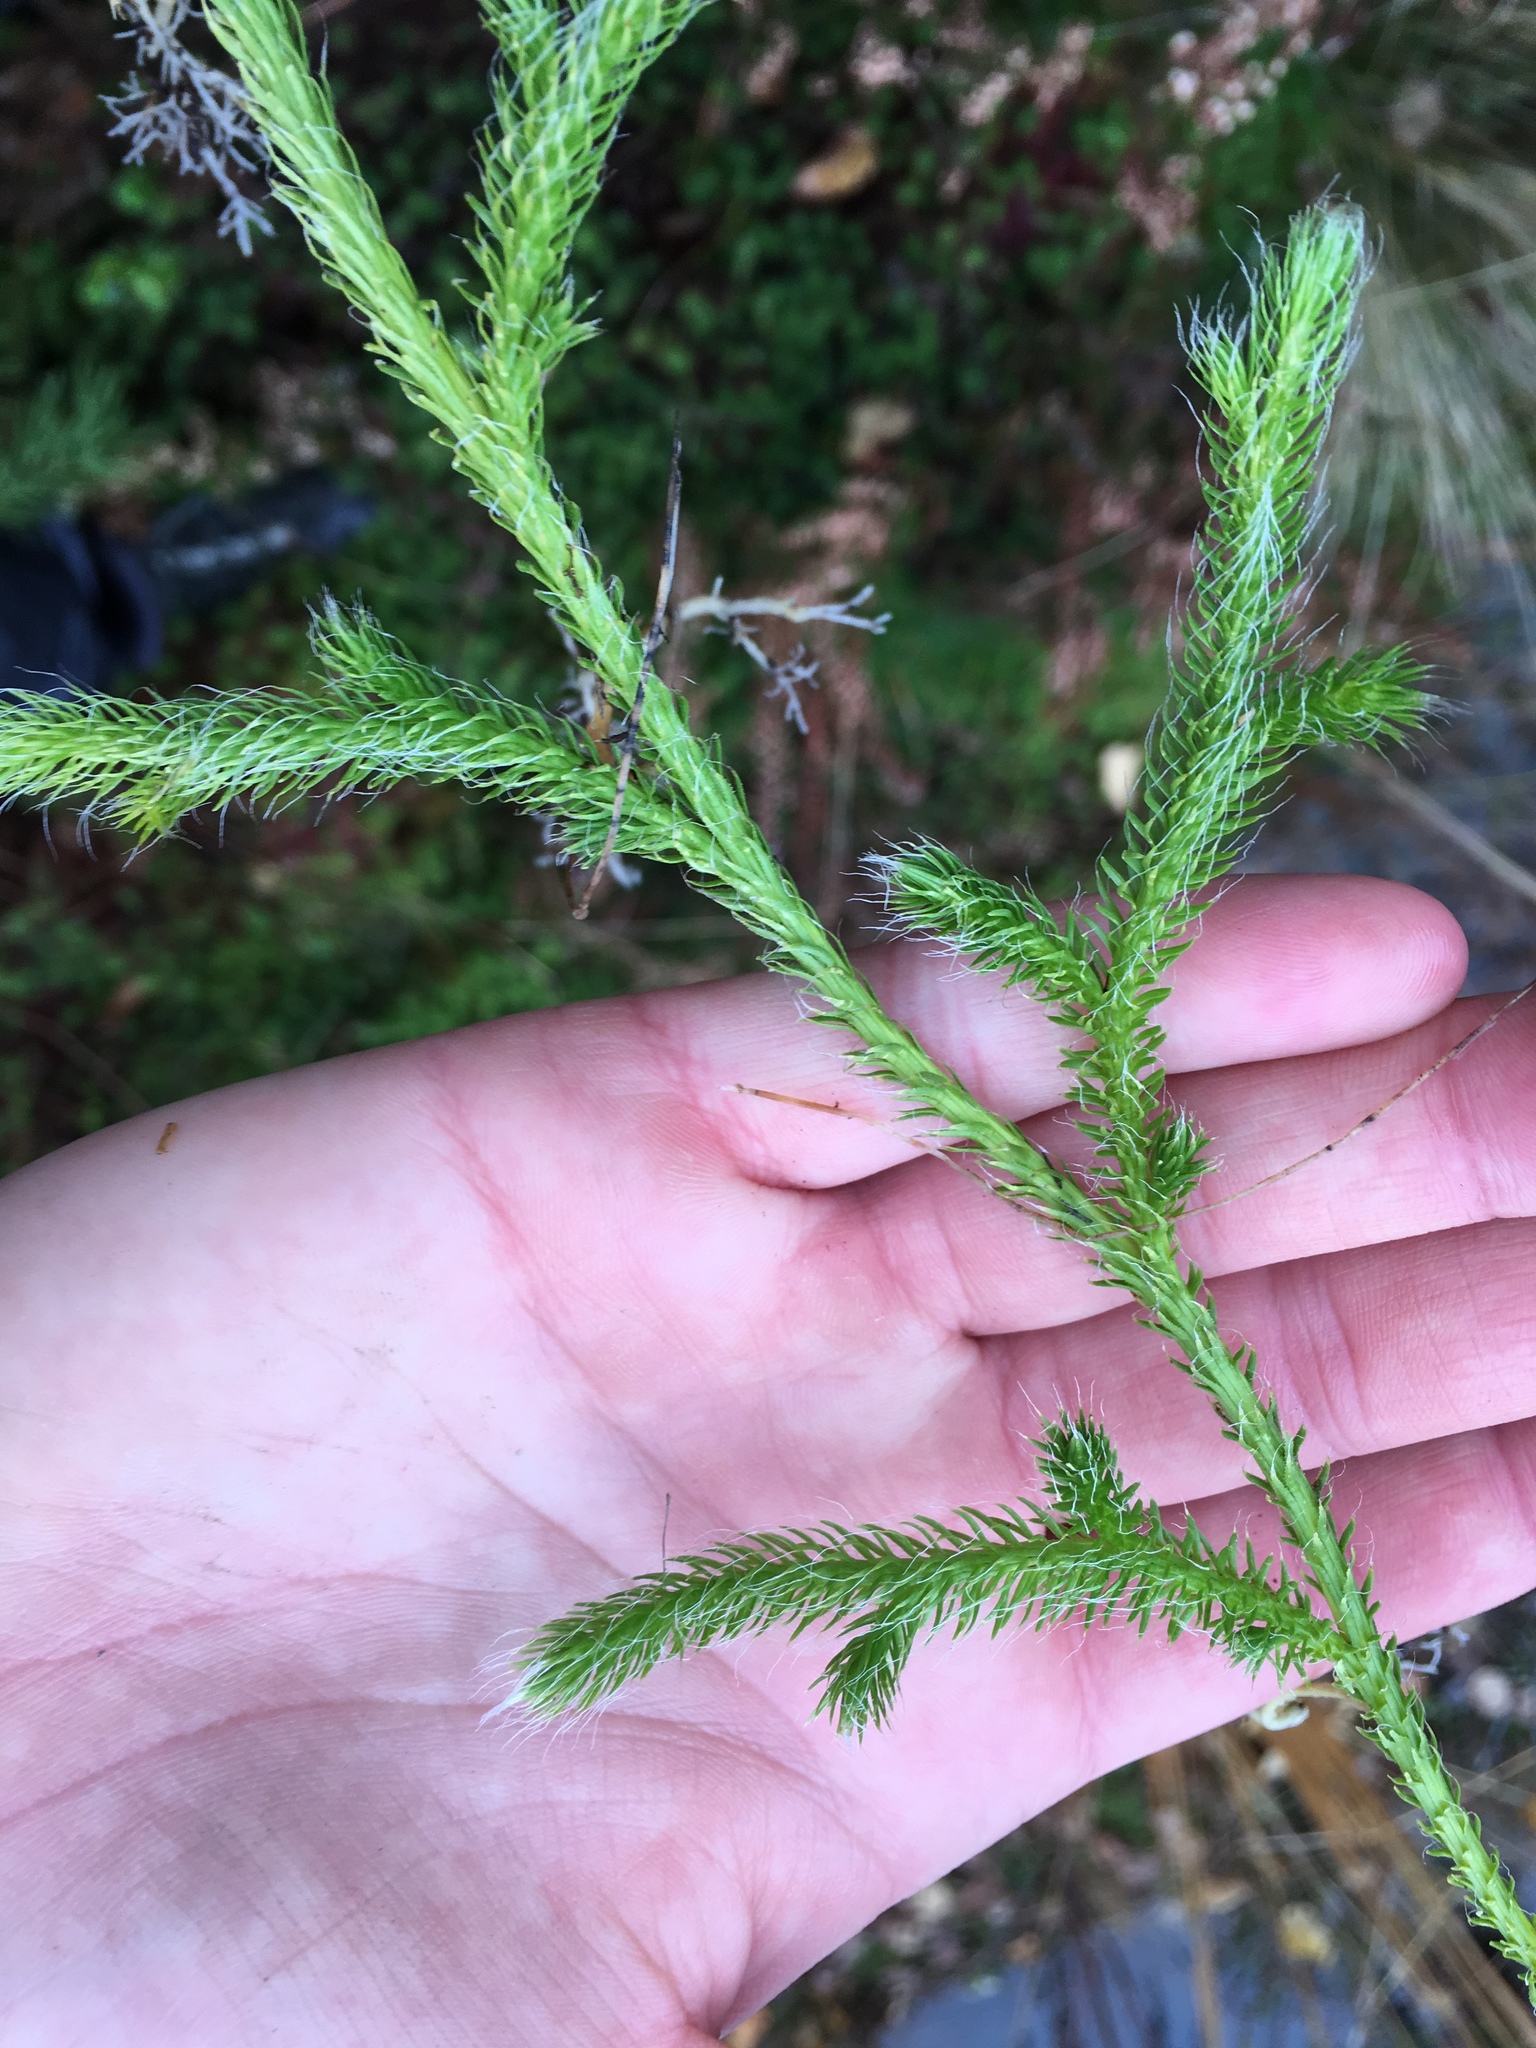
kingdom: Plantae
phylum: Tracheophyta
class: Lycopodiopsida
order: Lycopodiales
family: Lycopodiaceae
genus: Lycopodium
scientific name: Lycopodium clavatum
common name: Stag's-horn clubmoss
